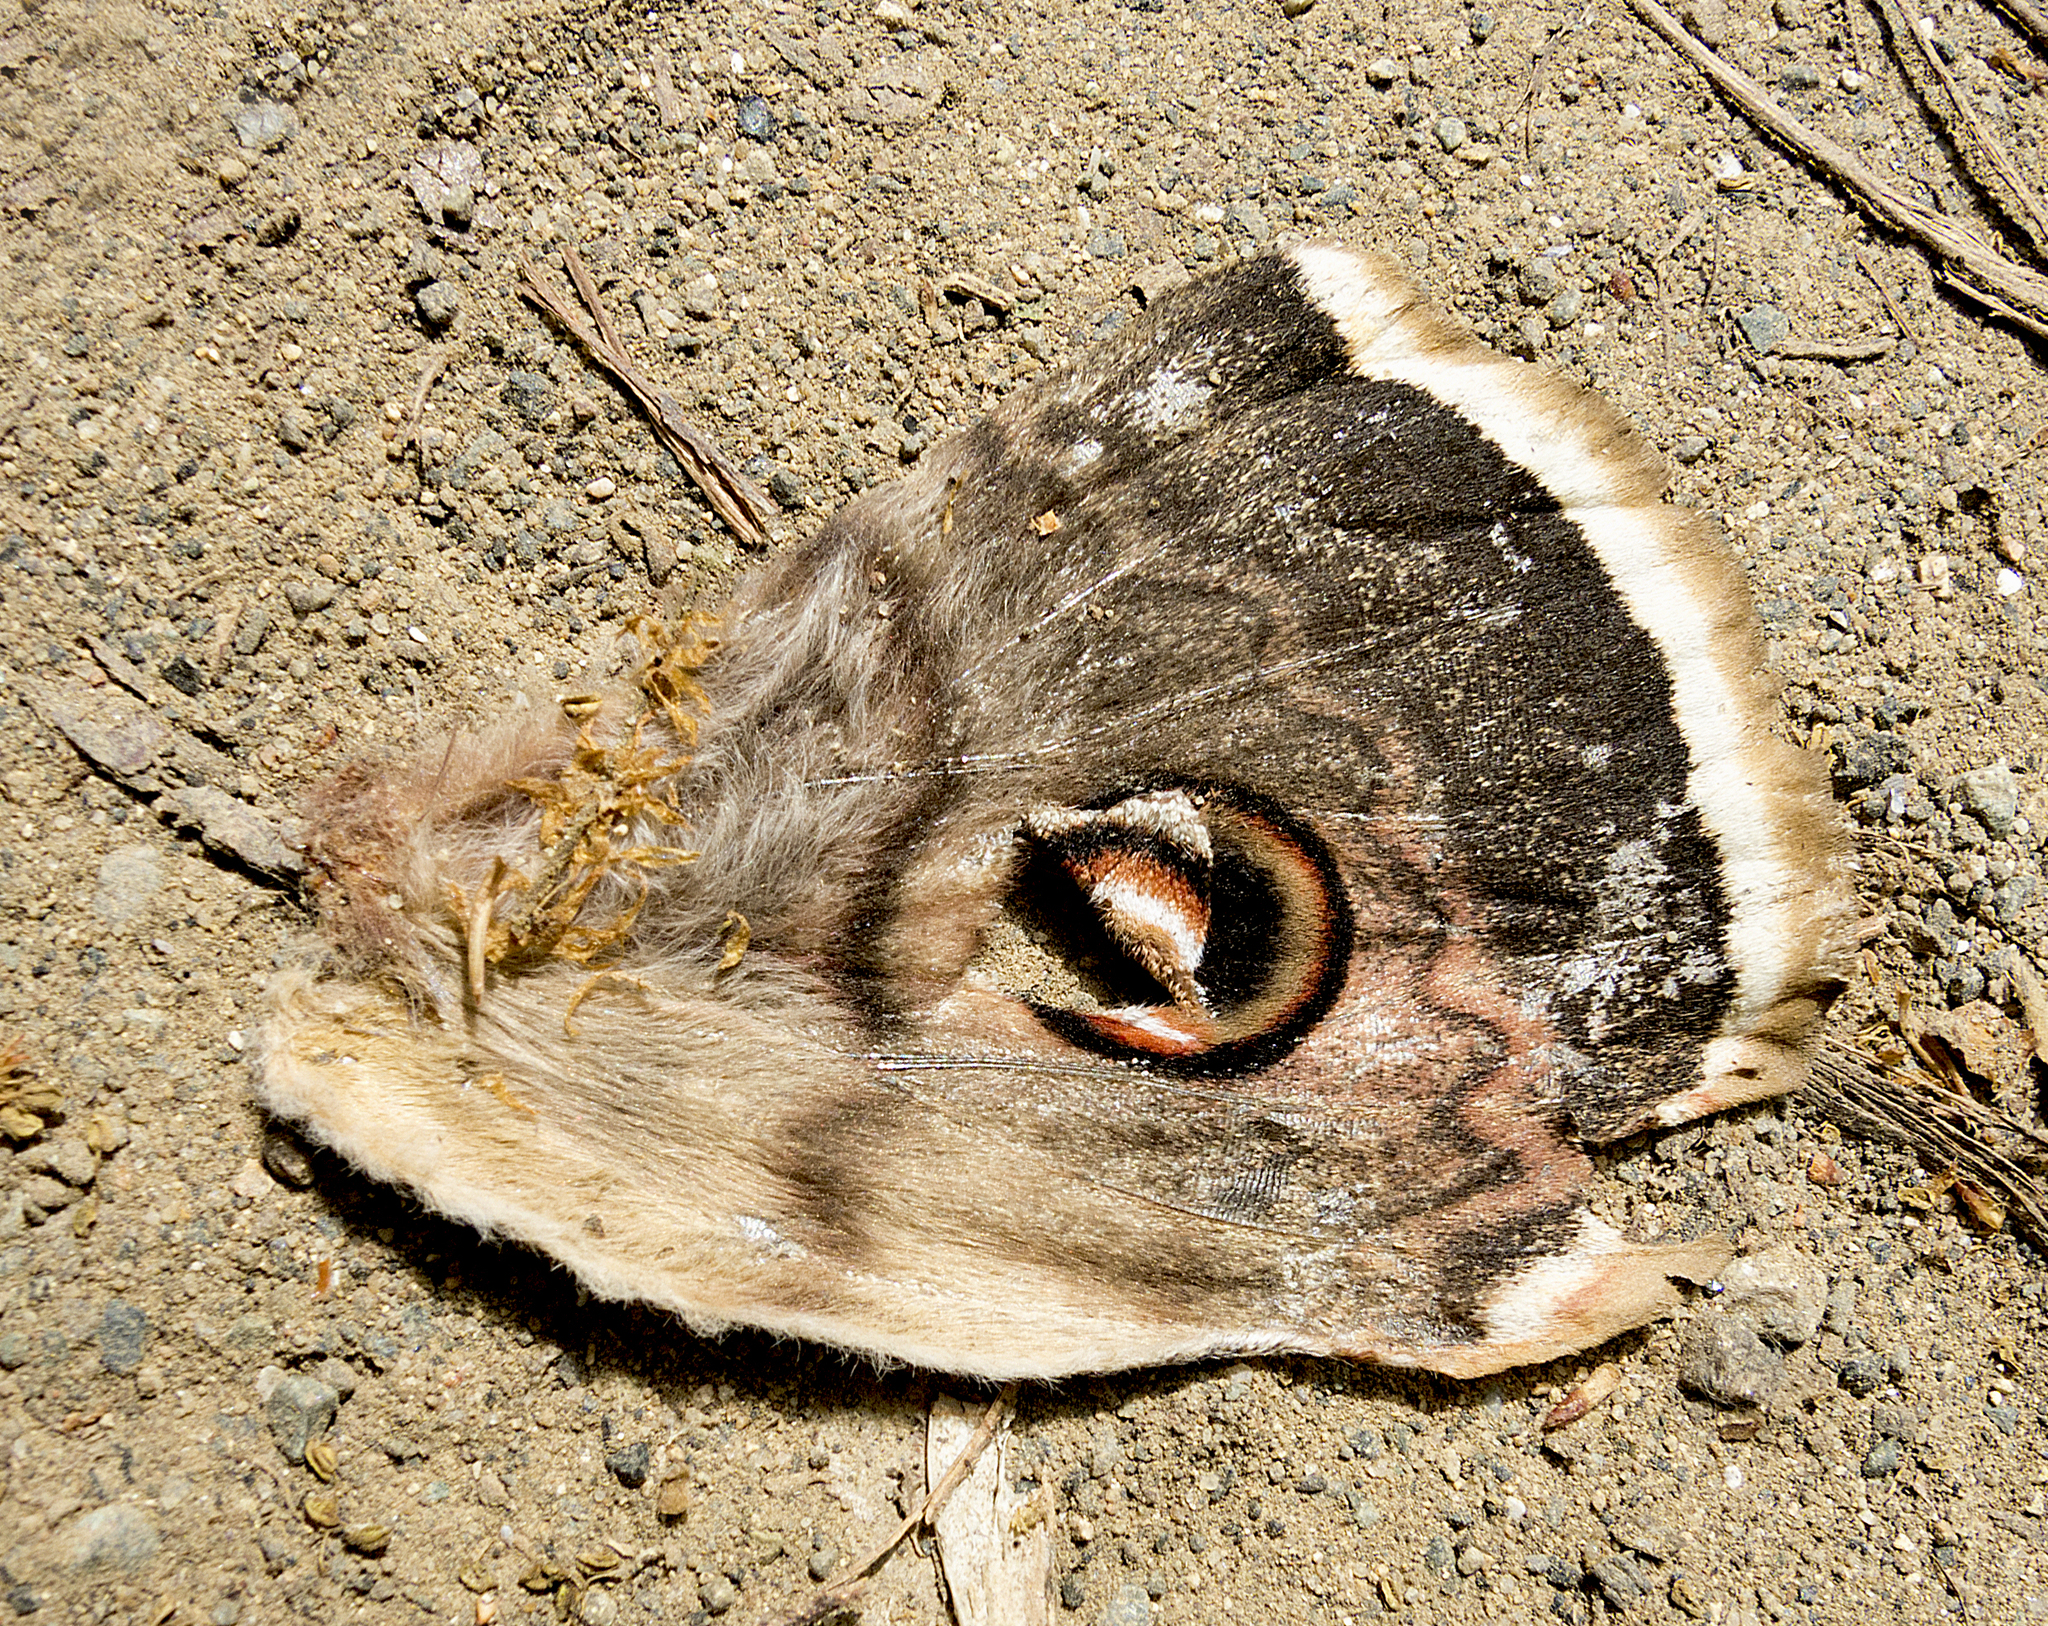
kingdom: Animalia
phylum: Arthropoda
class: Insecta
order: Lepidoptera
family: Saturniidae
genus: Saturnia
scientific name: Saturnia pyri
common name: Great peacock moth
